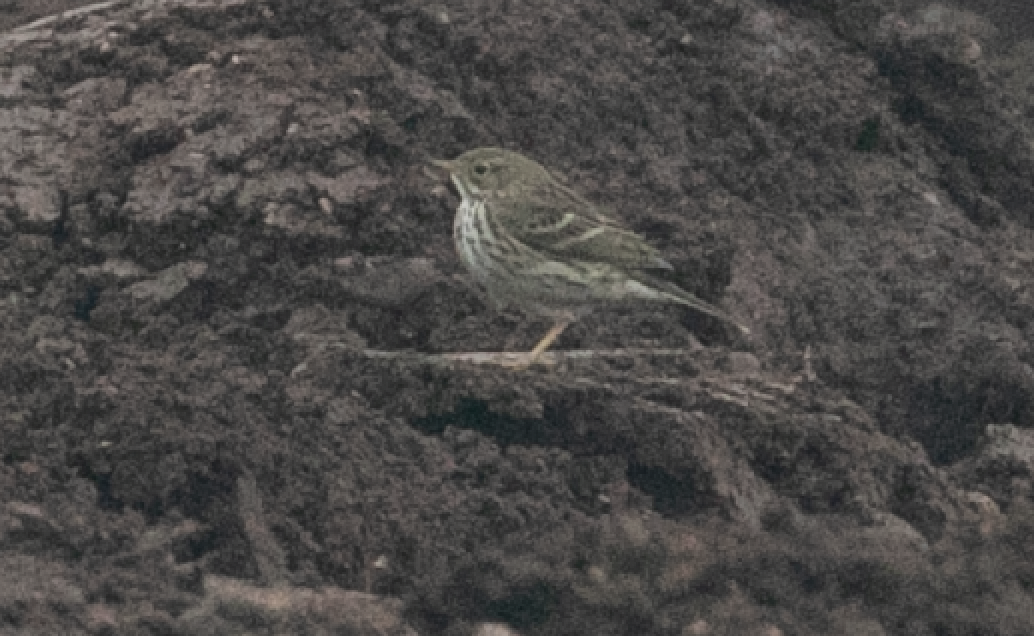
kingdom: Animalia
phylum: Chordata
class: Aves
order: Passeriformes
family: Motacillidae
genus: Anthus
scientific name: Anthus pratensis
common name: Meadow pipit
